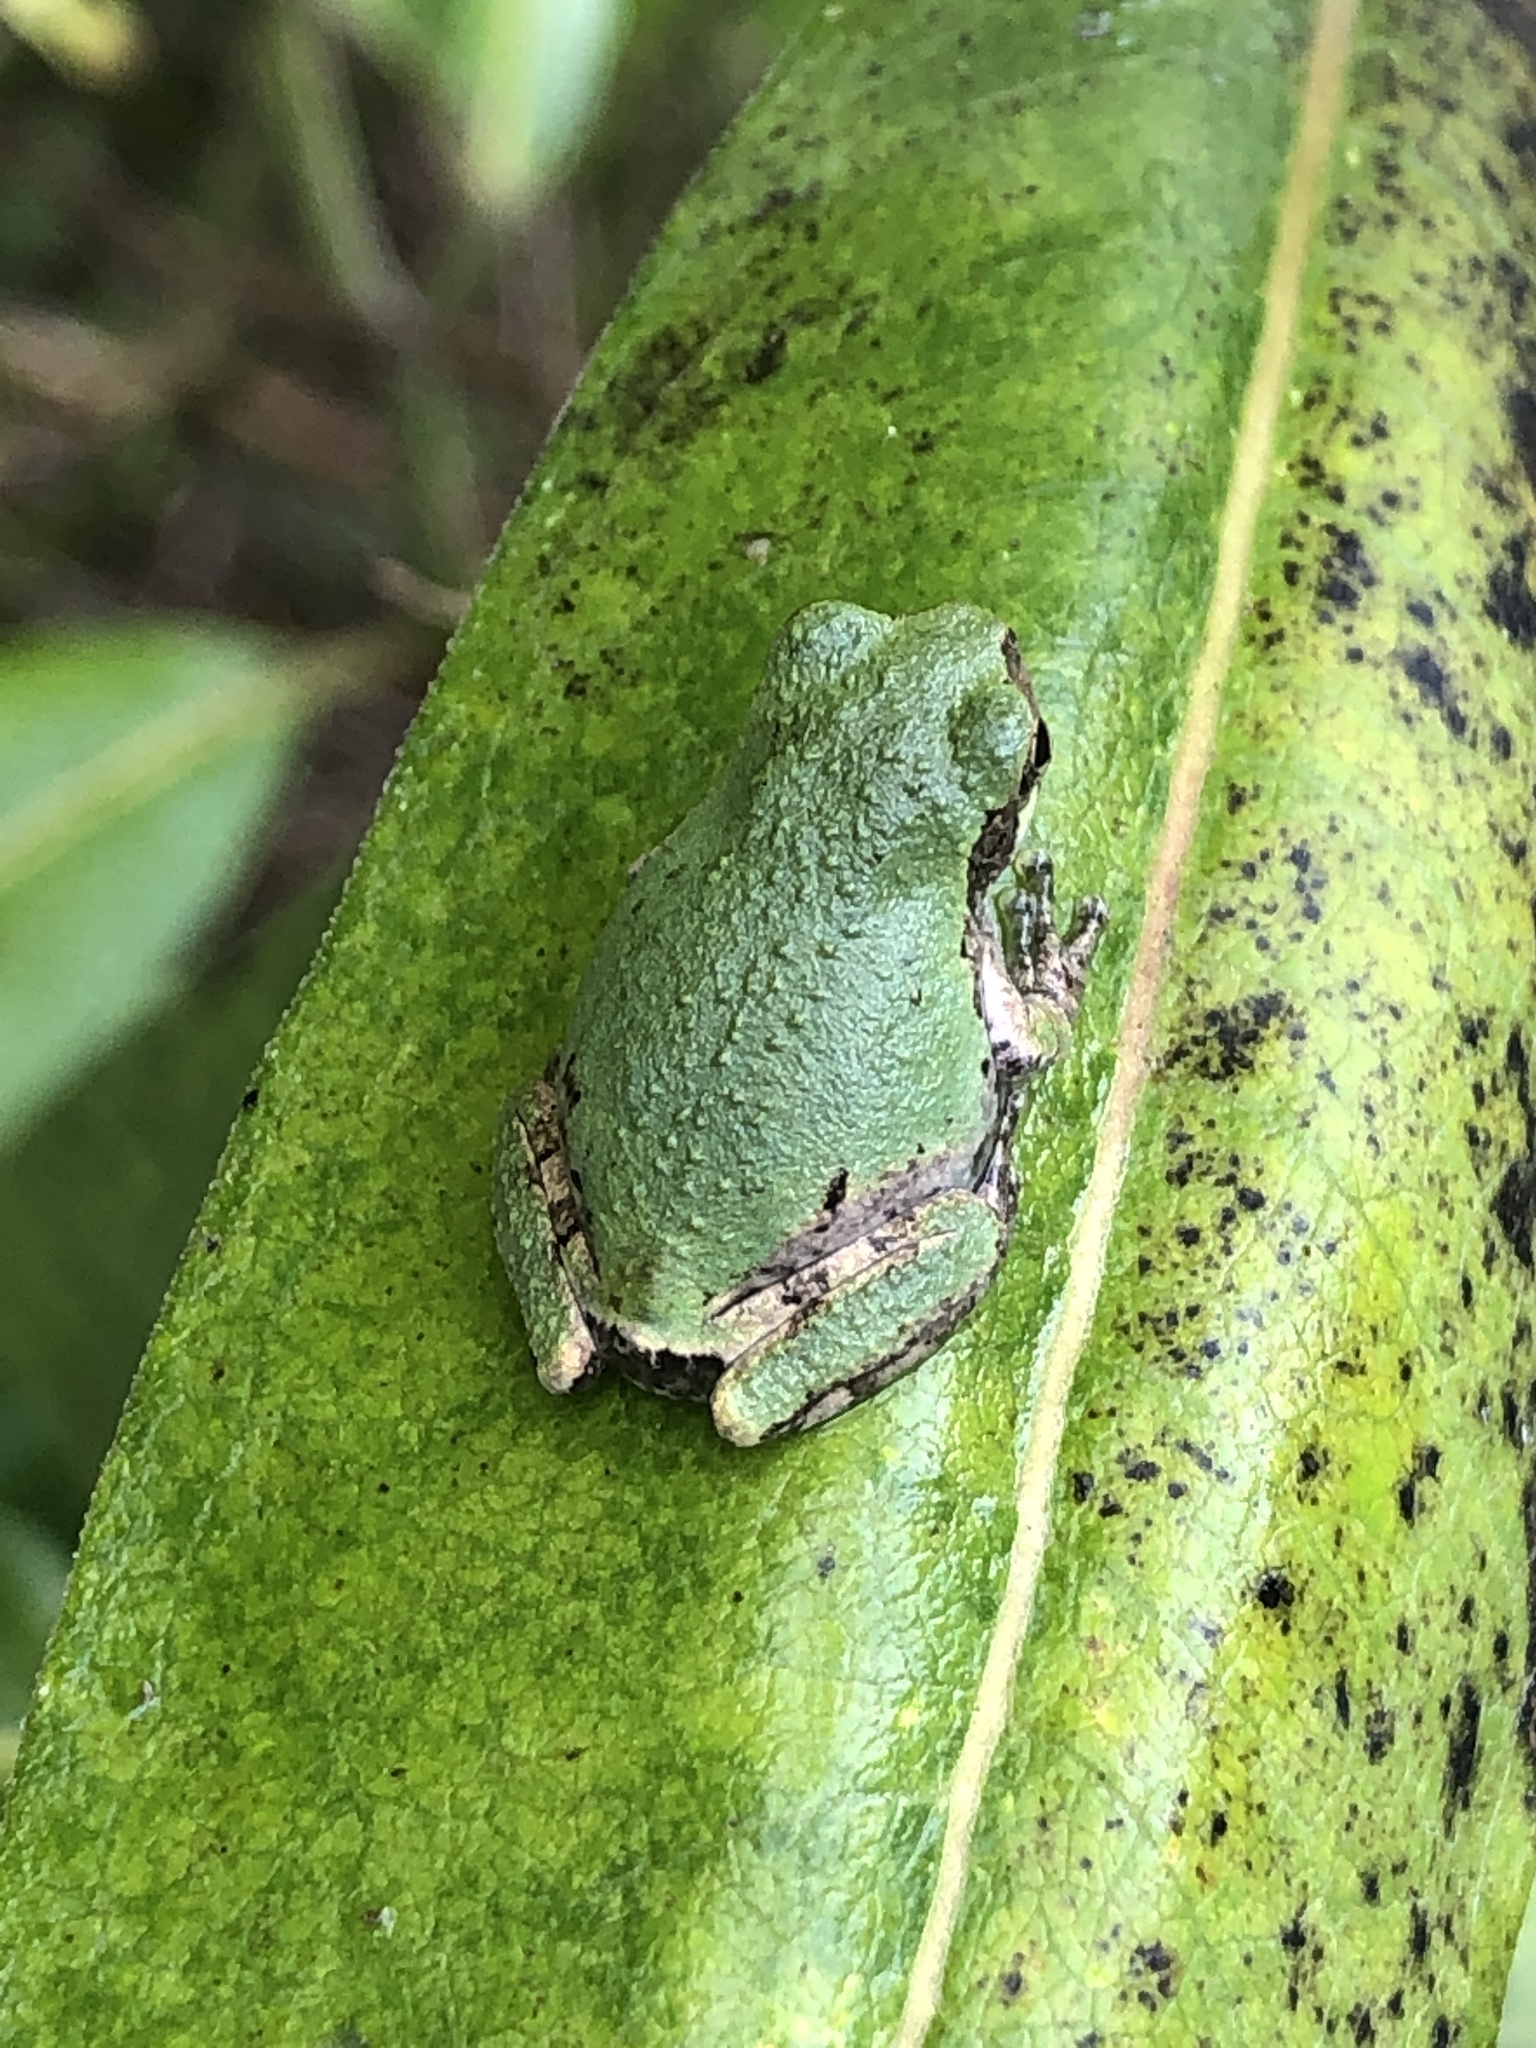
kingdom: Animalia
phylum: Chordata
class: Amphibia
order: Anura
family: Hylidae
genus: Hyla
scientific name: Hyla
